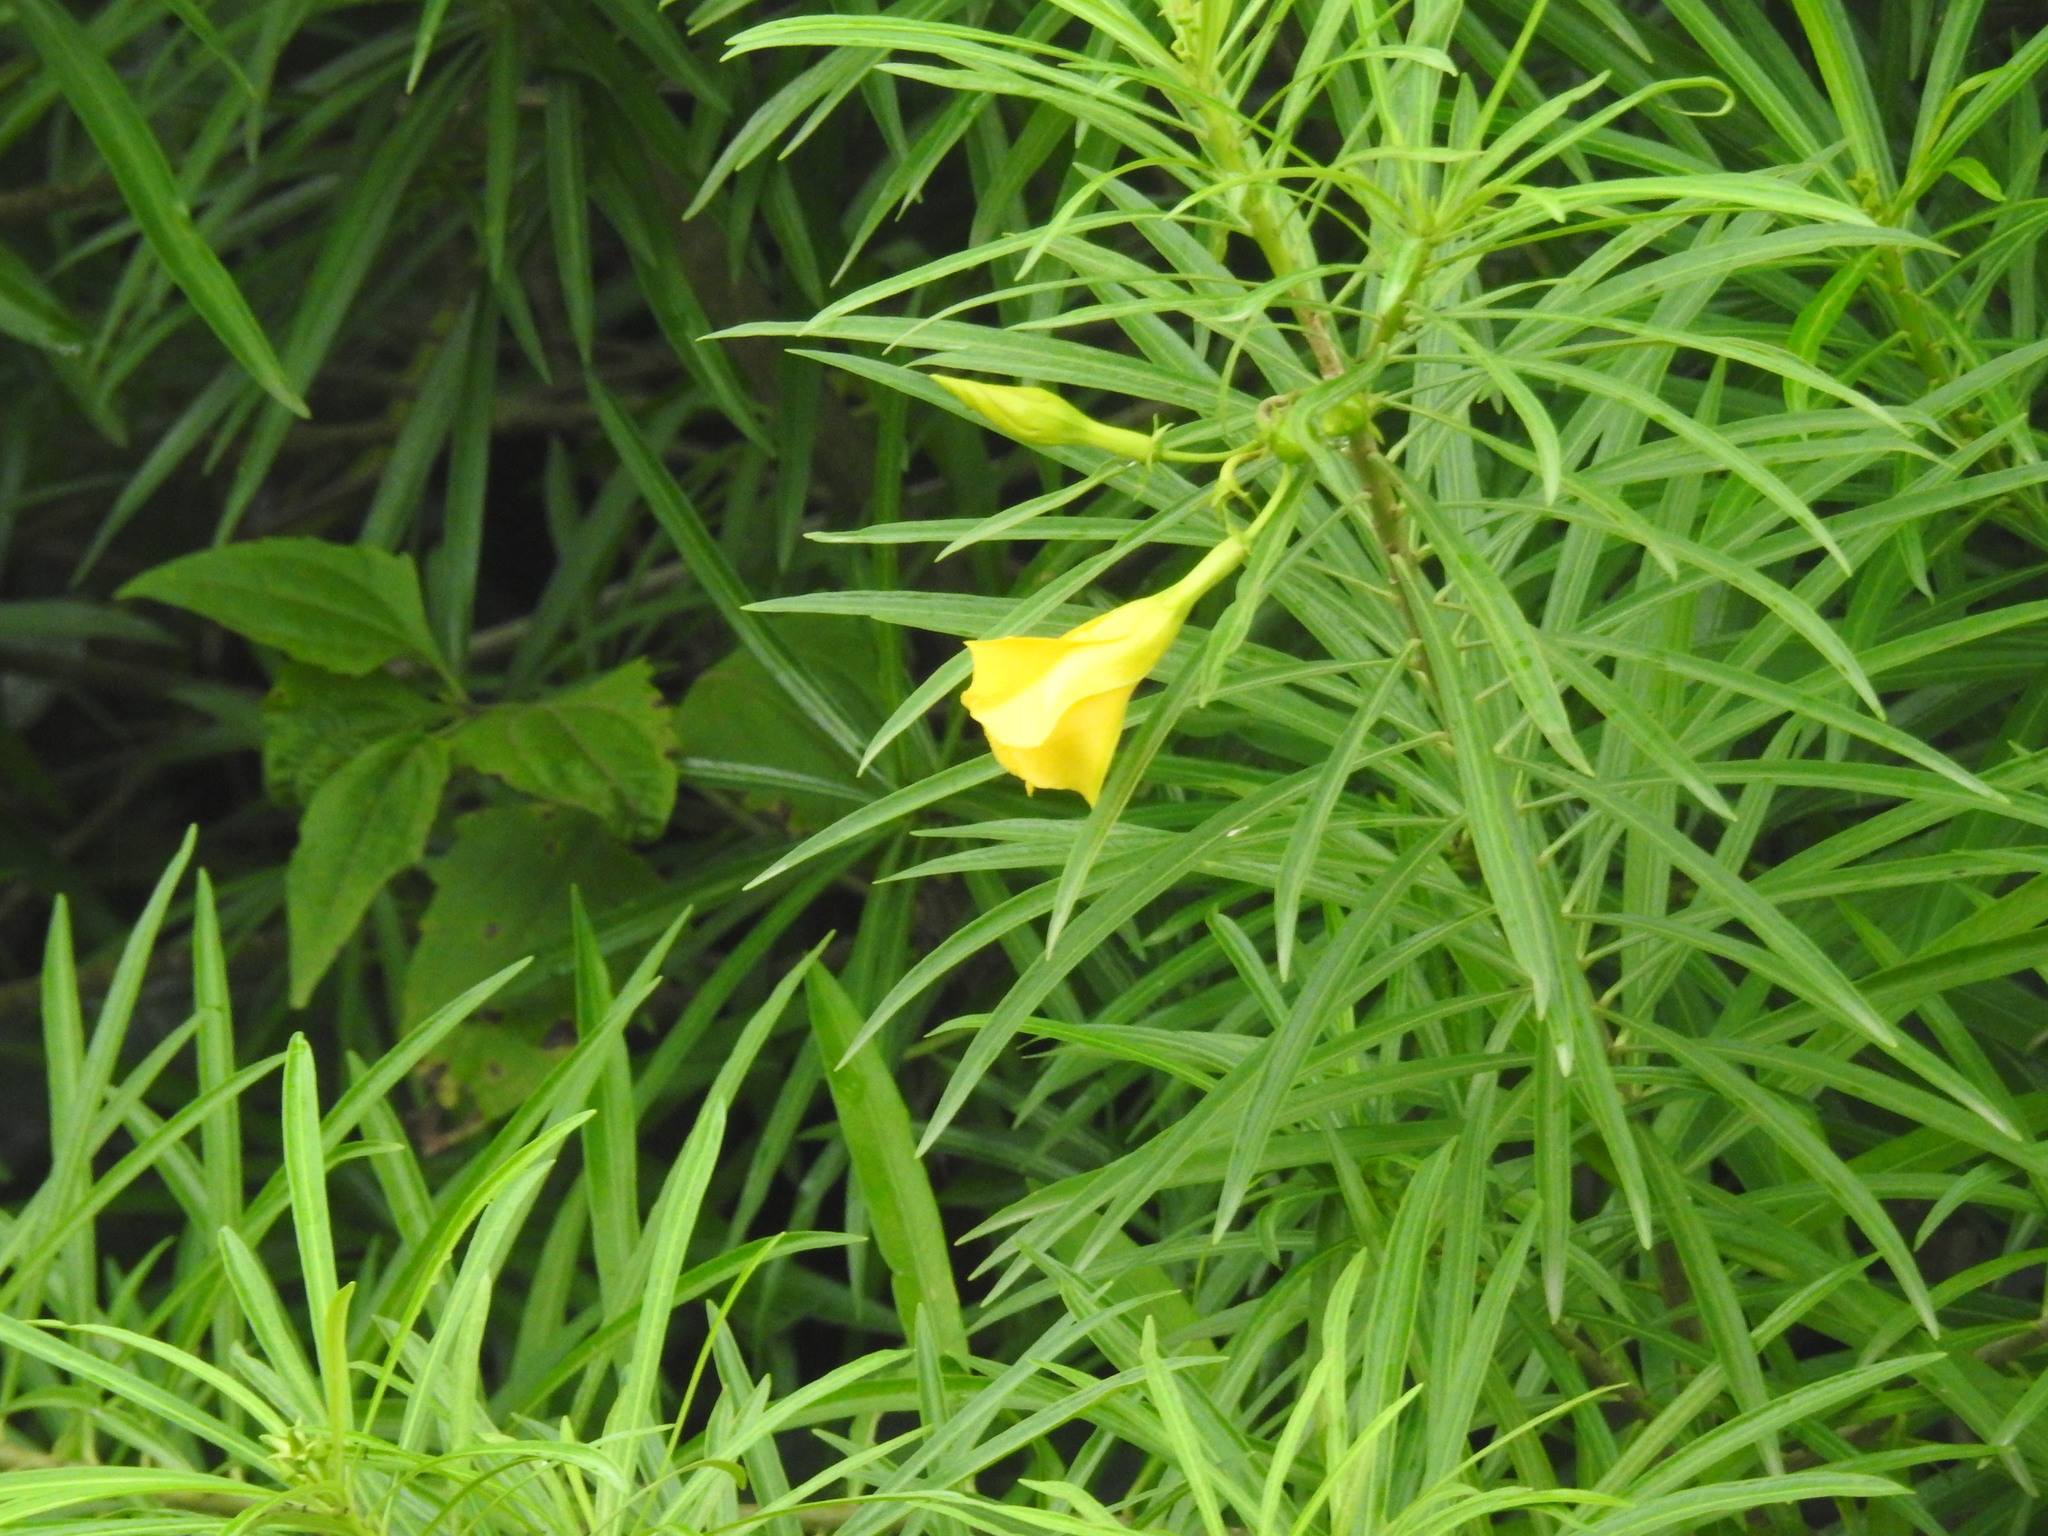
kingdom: Plantae
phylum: Tracheophyta
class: Magnoliopsida
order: Gentianales
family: Apocynaceae
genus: Cascabela
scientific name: Cascabela thevetia
